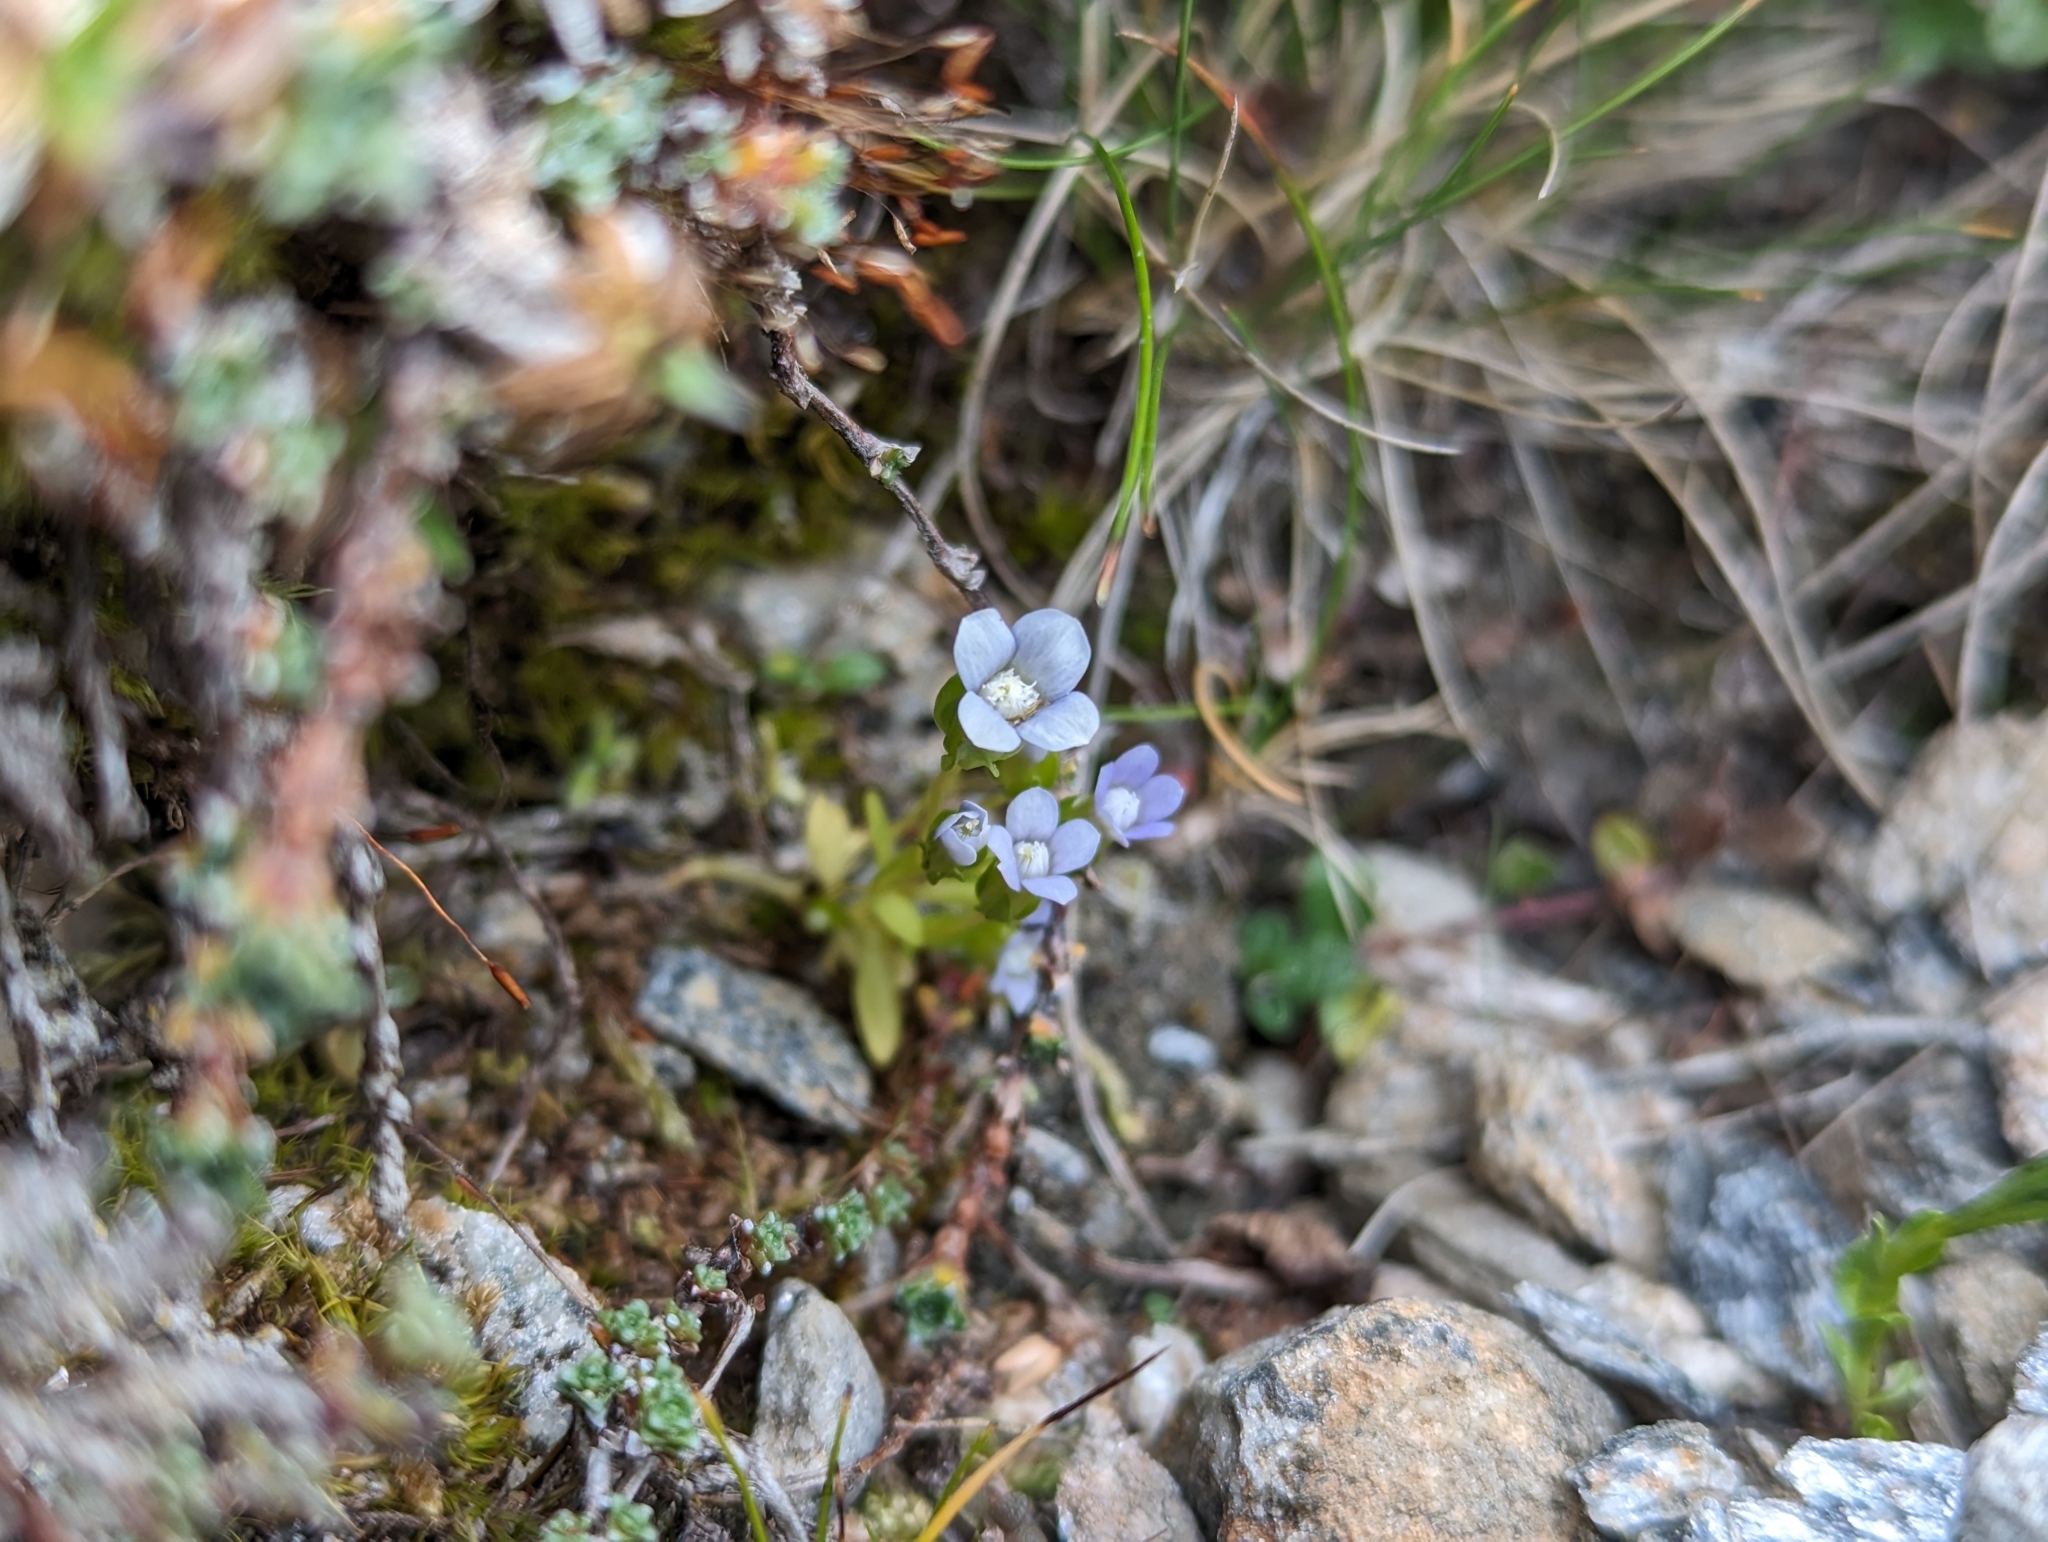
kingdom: Plantae
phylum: Tracheophyta
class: Magnoliopsida
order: Gentianales
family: Gentianaceae
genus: Comastoma
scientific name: Comastoma nanum
